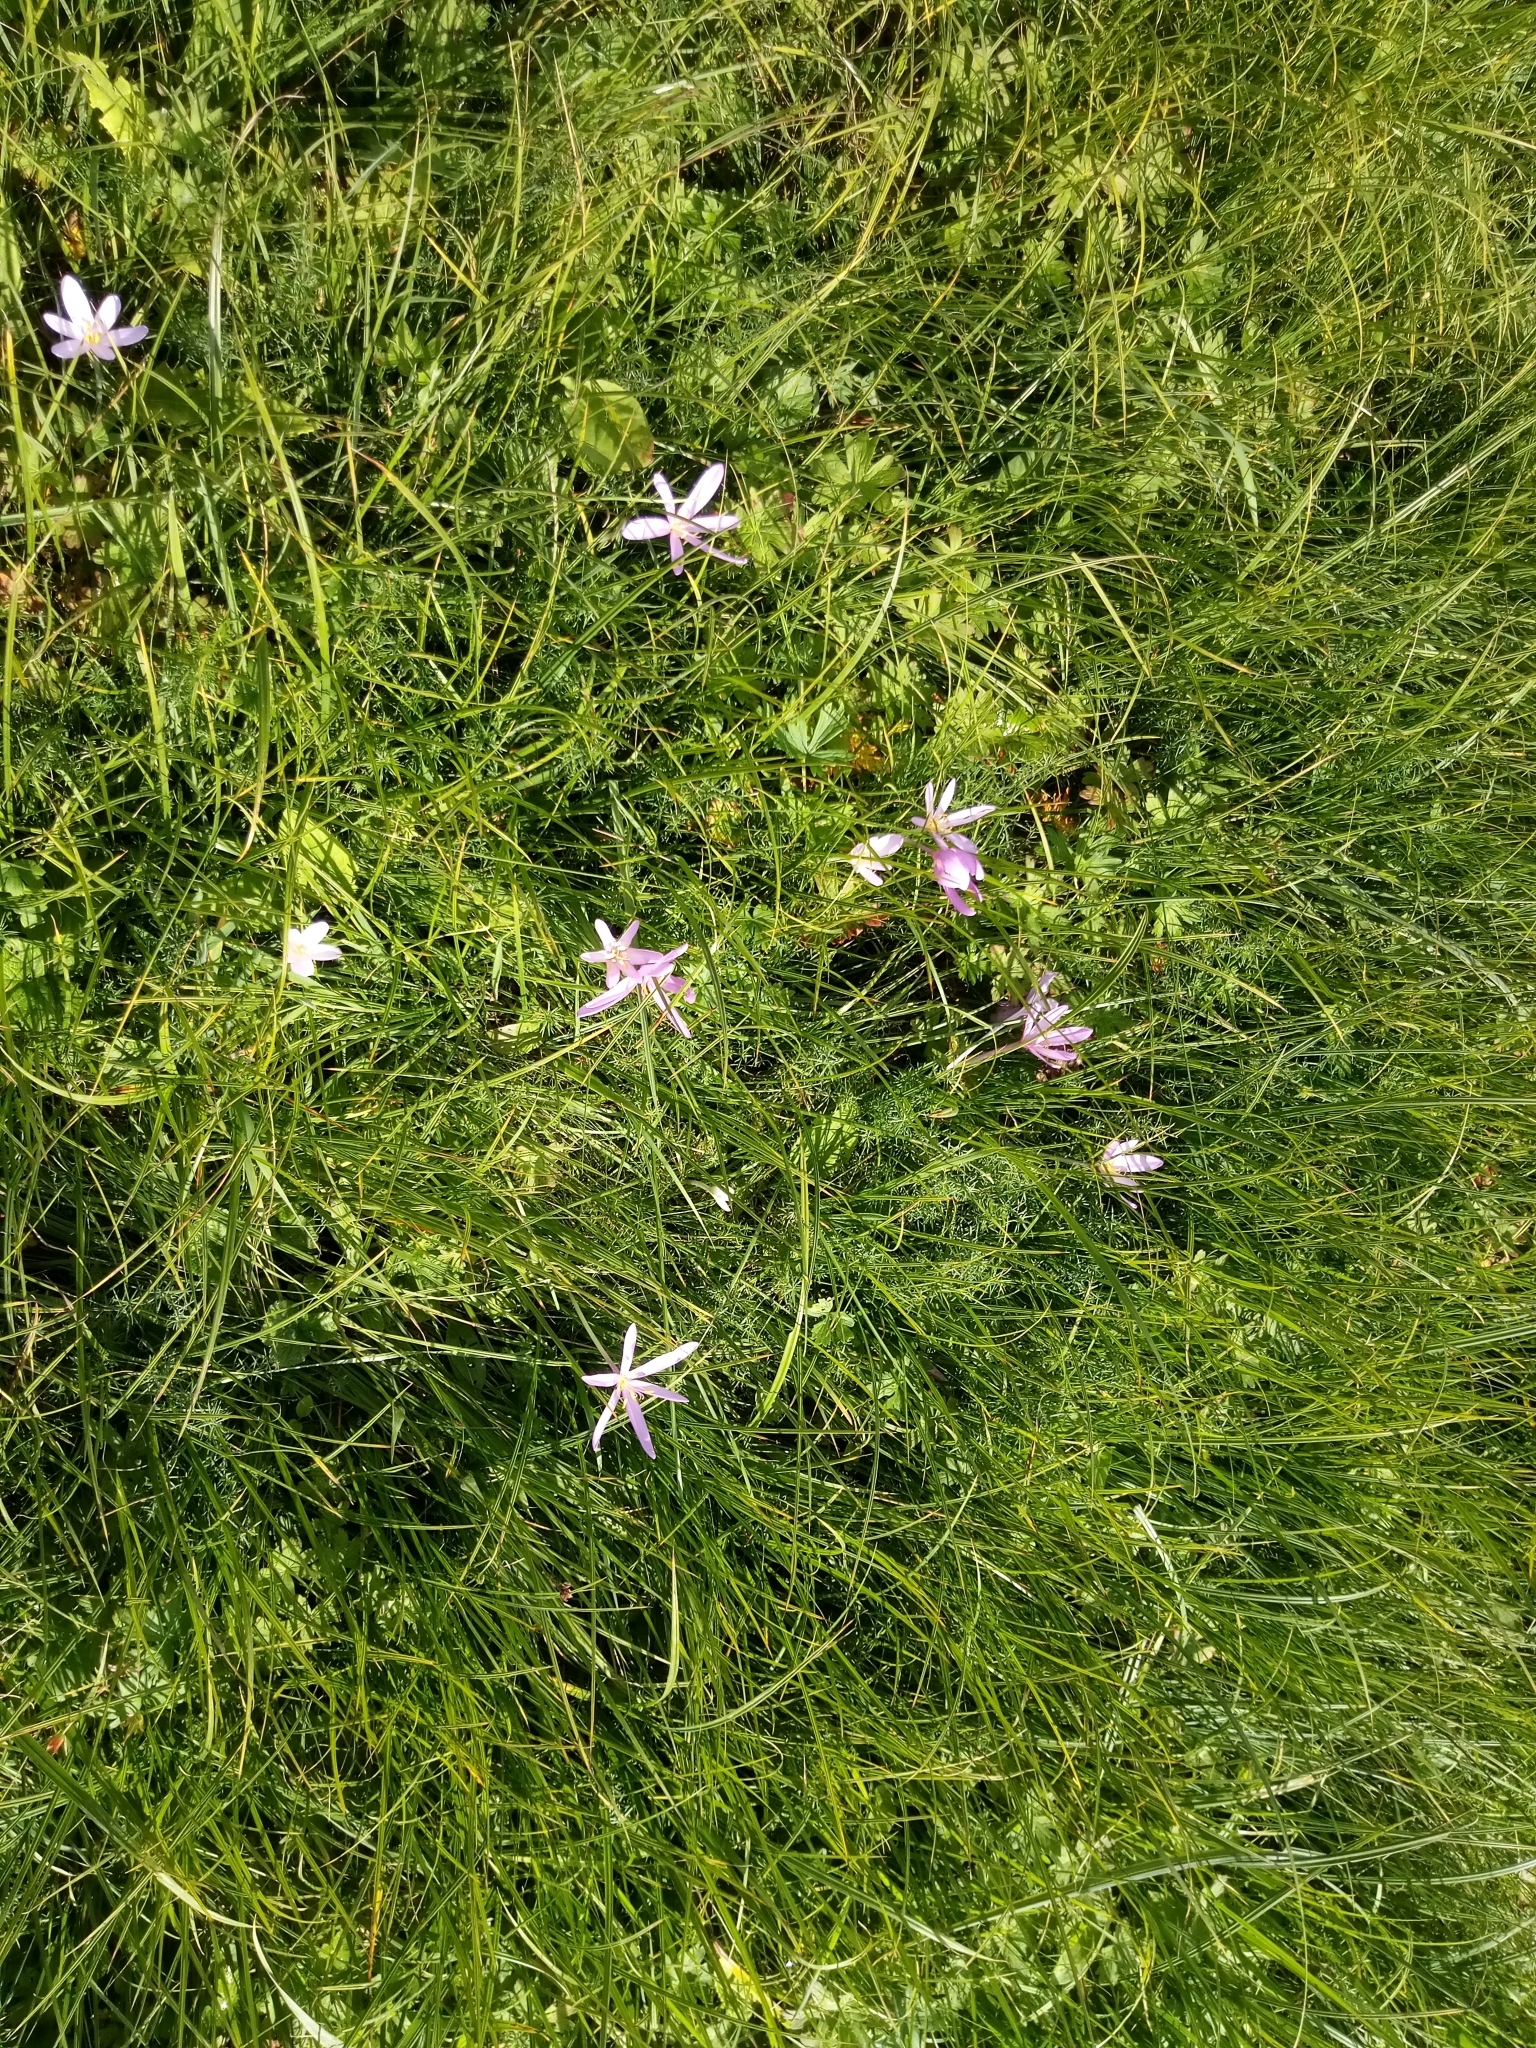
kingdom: Plantae
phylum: Tracheophyta
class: Liliopsida
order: Liliales
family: Colchicaceae
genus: Colchicum
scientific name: Colchicum autumnale
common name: Autumn crocus
